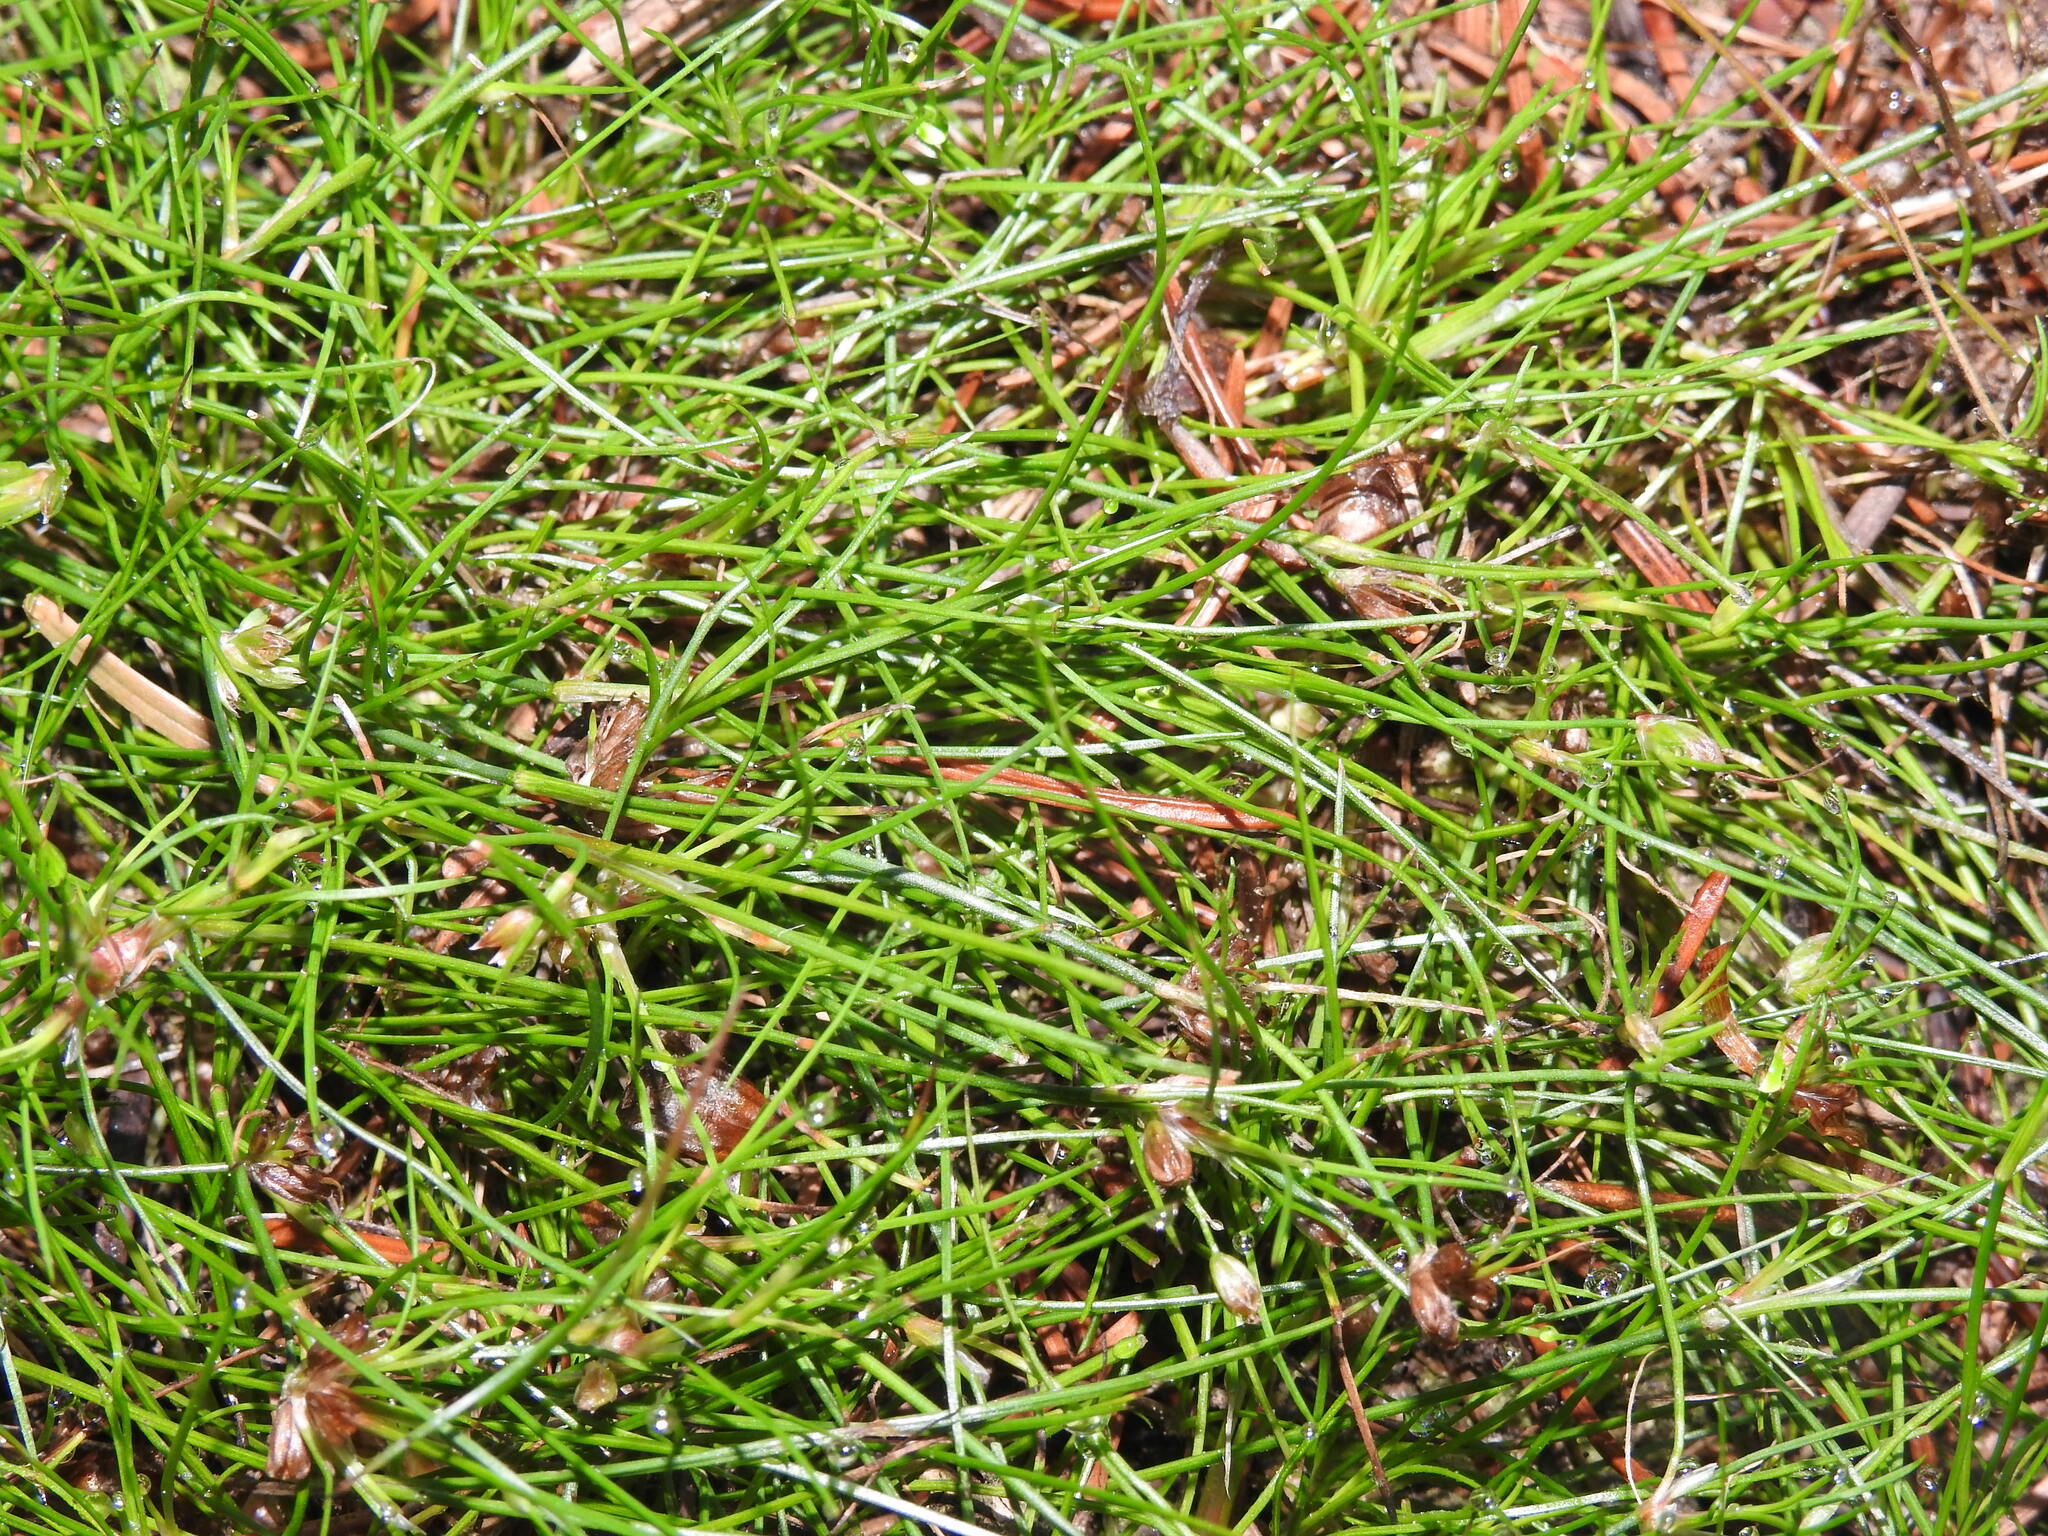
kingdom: Plantae
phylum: Tracheophyta
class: Liliopsida
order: Poales
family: Juncaceae
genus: Juncus
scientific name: Juncus bulbosus
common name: Bulbous rush
